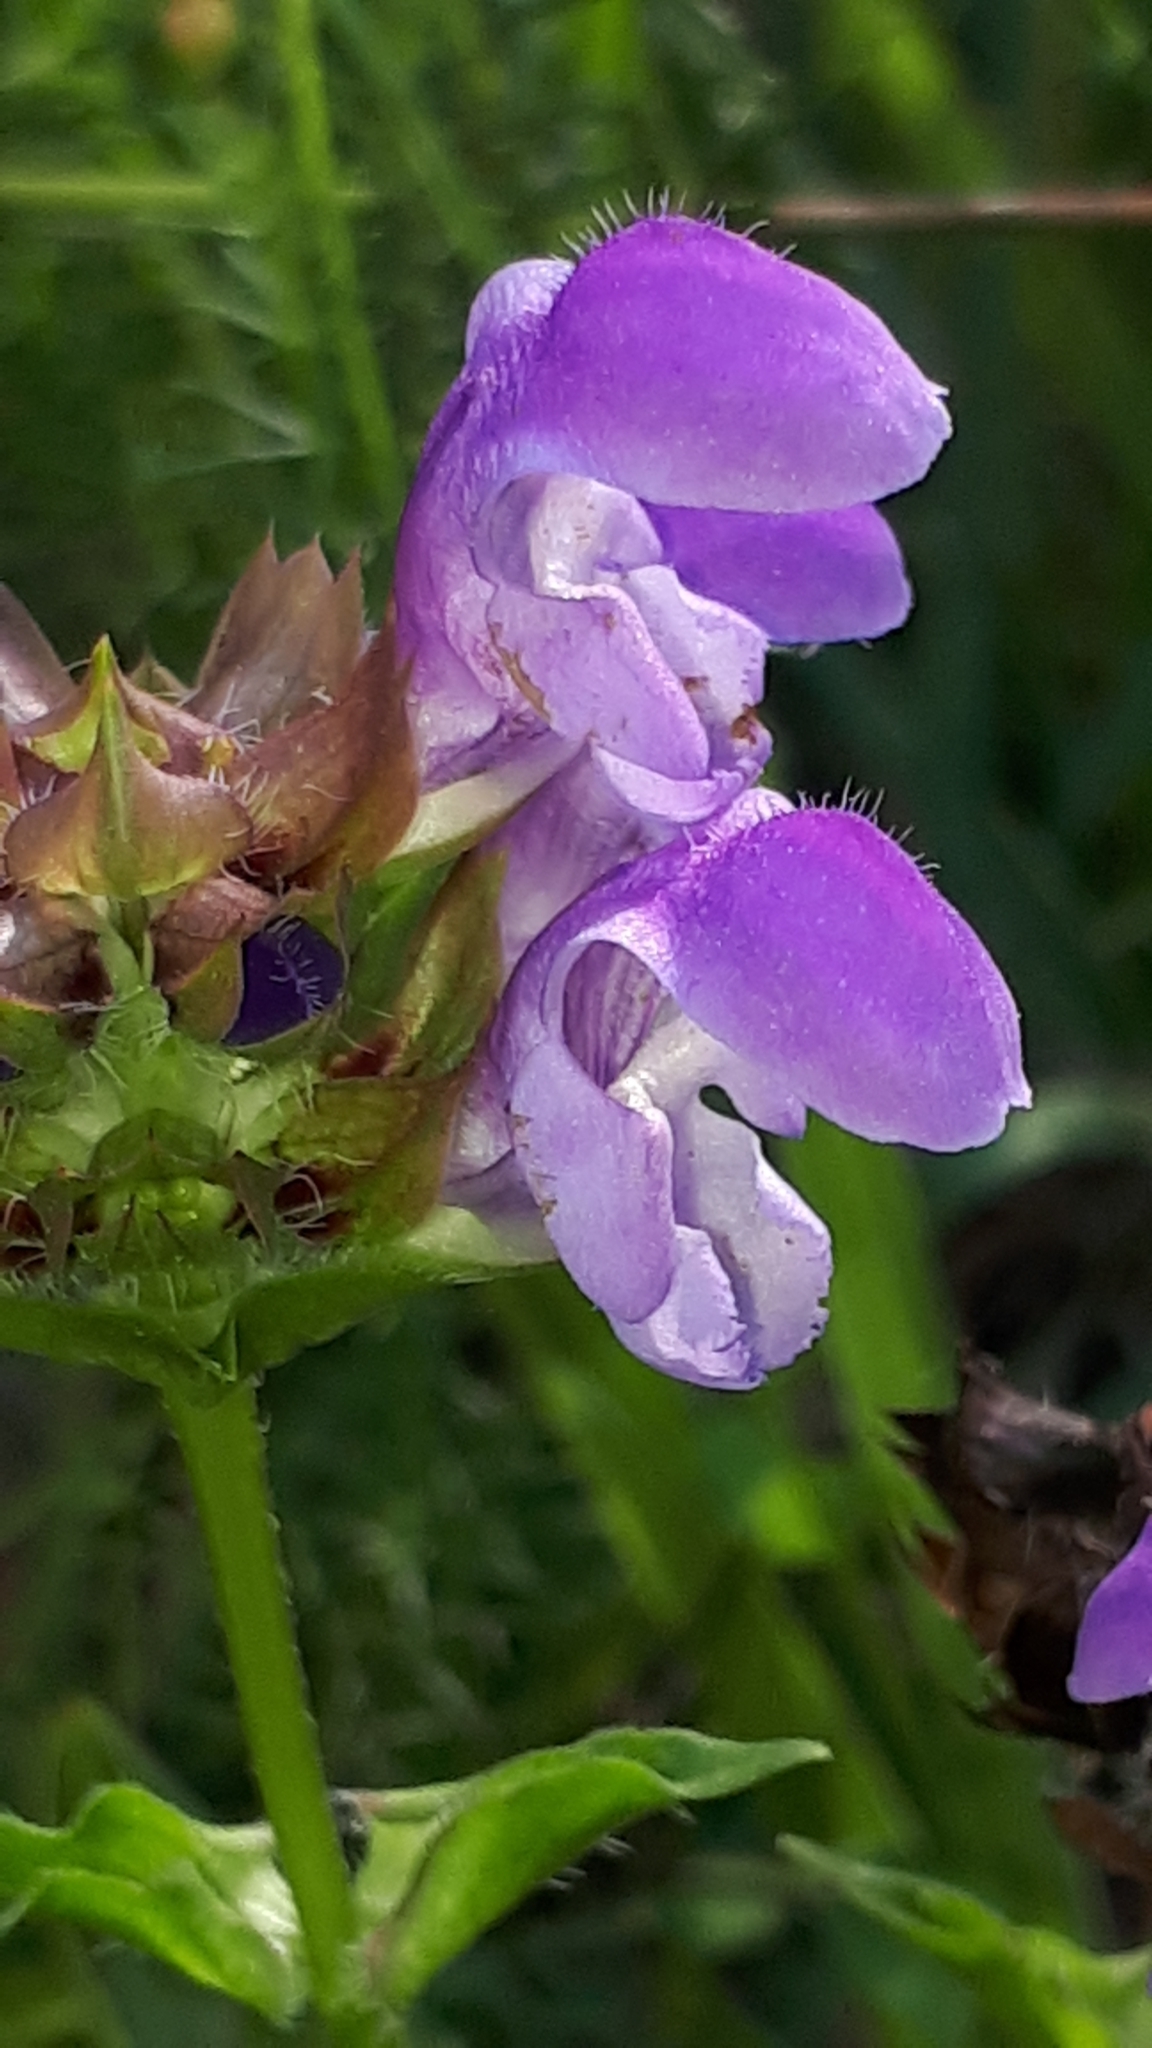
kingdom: Plantae
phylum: Tracheophyta
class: Magnoliopsida
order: Lamiales
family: Lamiaceae
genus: Prunella
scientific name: Prunella grandiflora
